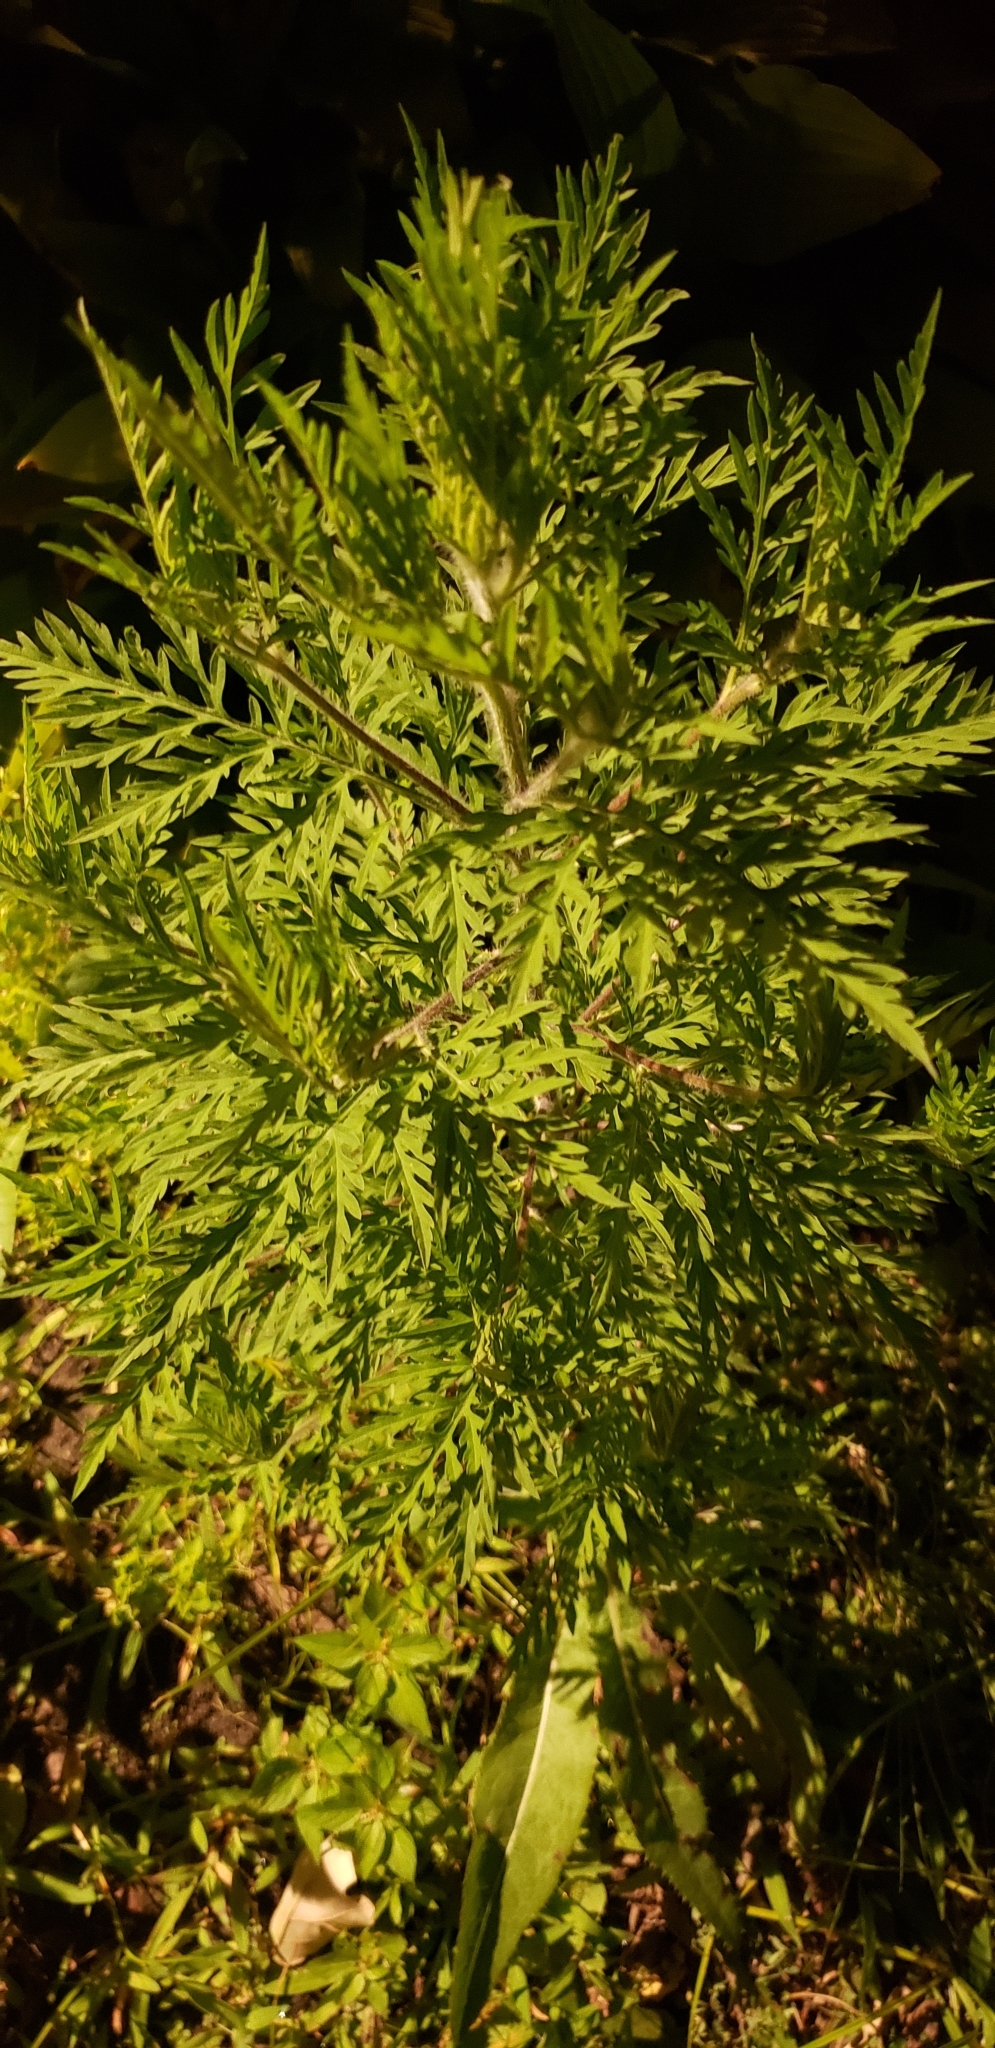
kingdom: Plantae
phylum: Tracheophyta
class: Magnoliopsida
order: Asterales
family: Asteraceae
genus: Ambrosia
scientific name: Ambrosia artemisiifolia
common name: Annual ragweed
